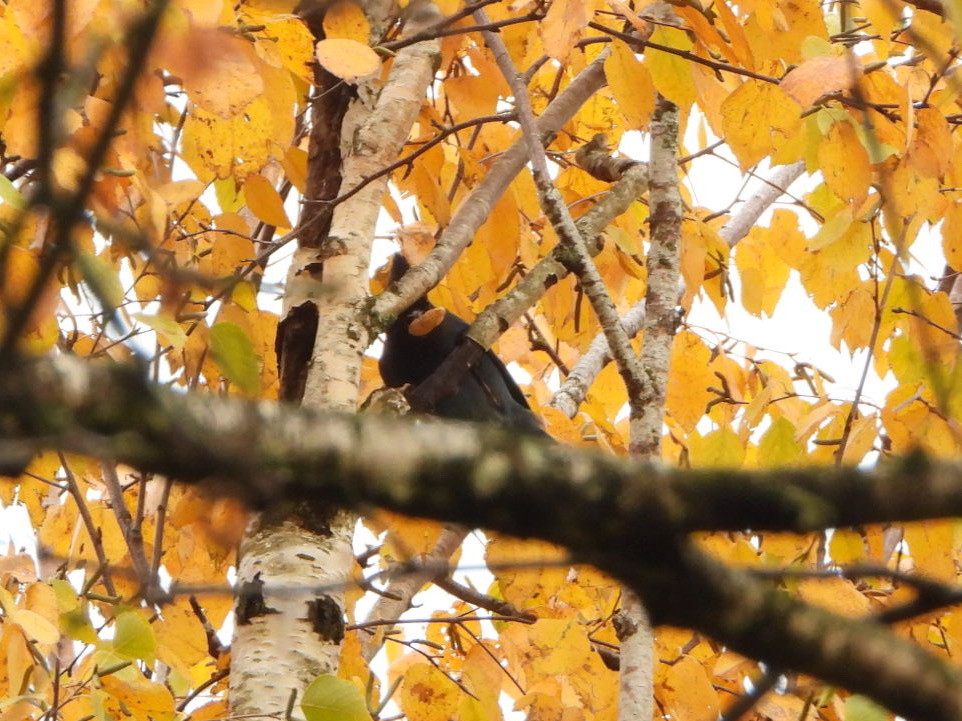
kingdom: Animalia
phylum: Chordata
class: Aves
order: Passeriformes
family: Corvidae
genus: Cyanocitta
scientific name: Cyanocitta stelleri
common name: Steller's jay
